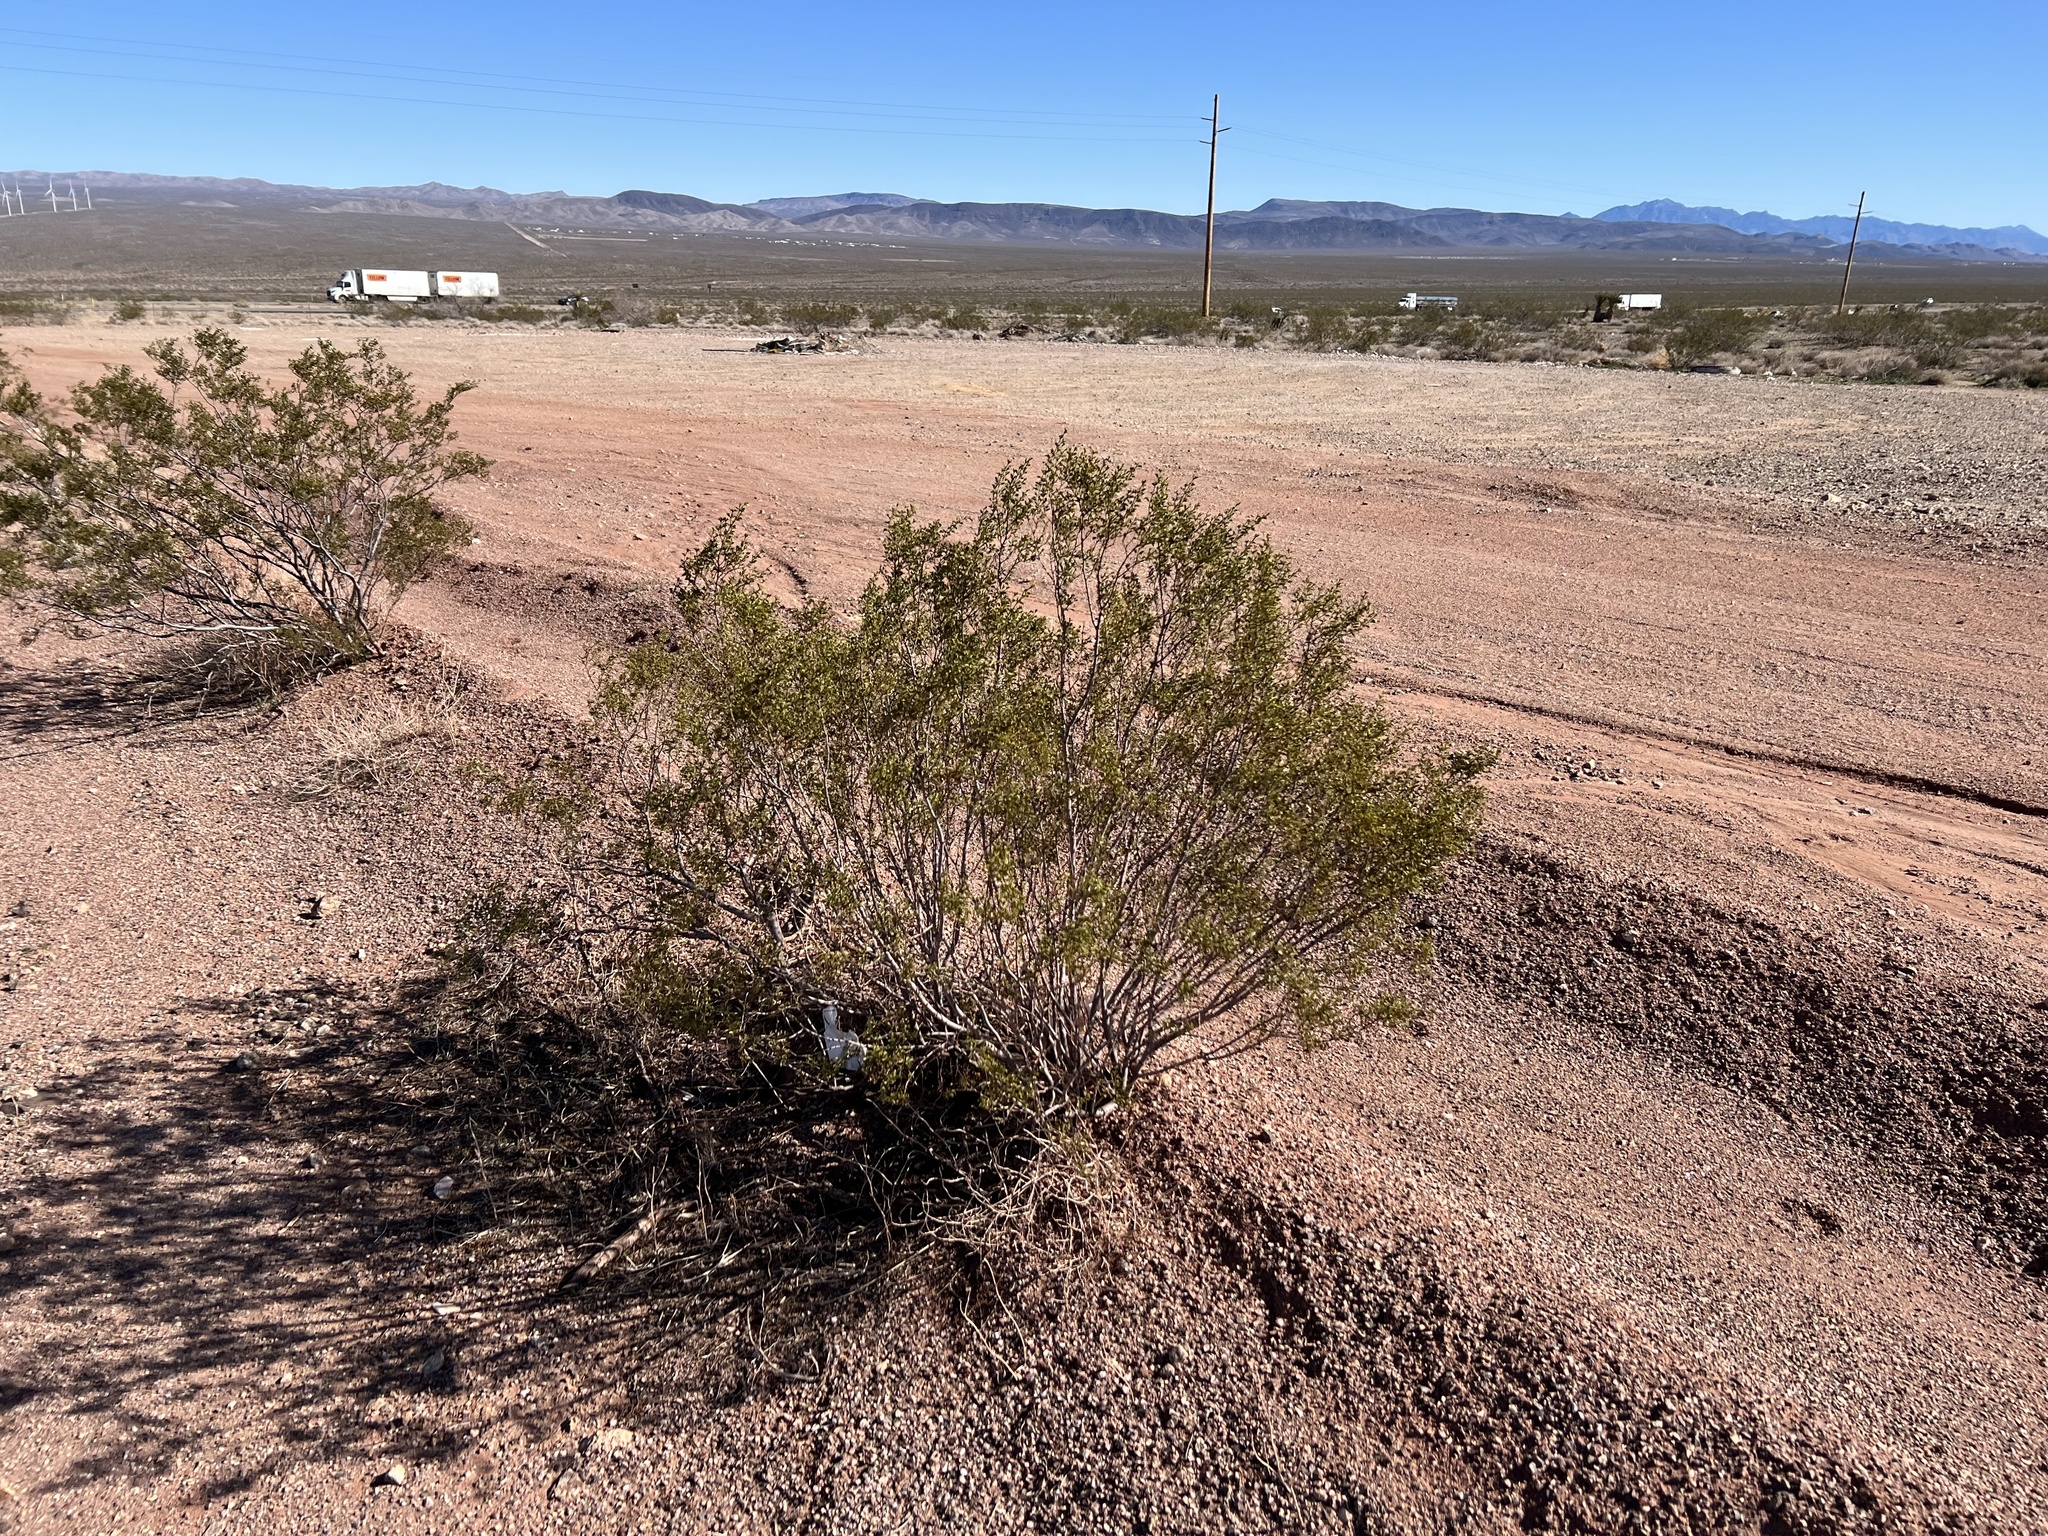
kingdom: Plantae
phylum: Tracheophyta
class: Magnoliopsida
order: Zygophyllales
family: Zygophyllaceae
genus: Larrea
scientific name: Larrea tridentata
